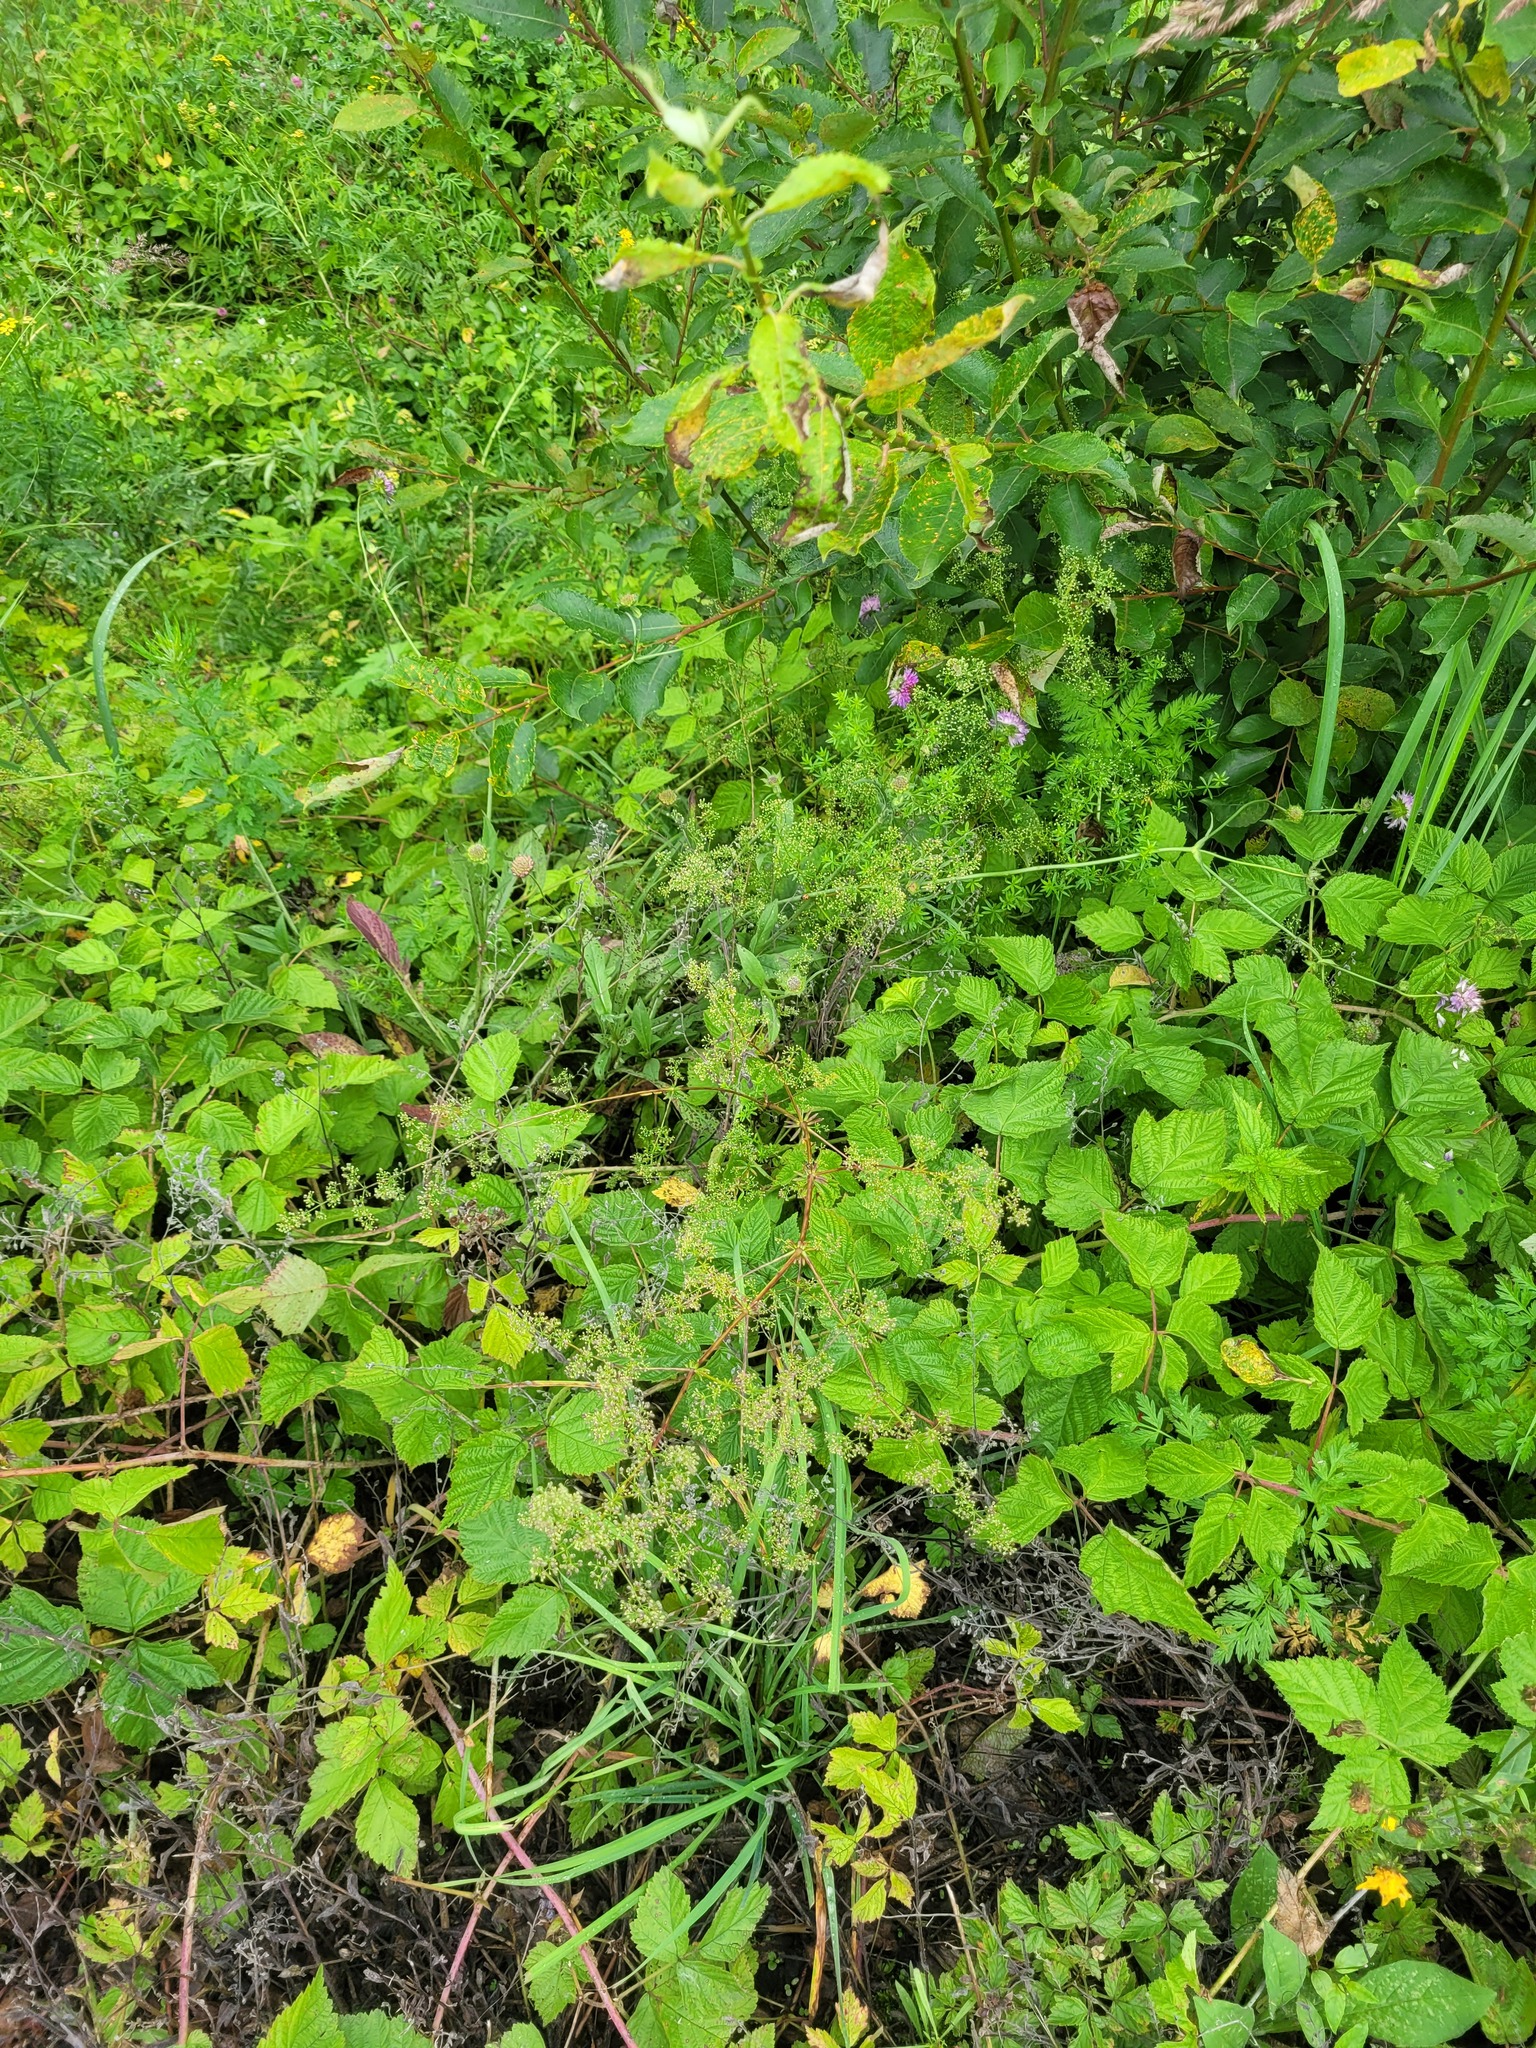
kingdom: Plantae
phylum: Tracheophyta
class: Magnoliopsida
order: Gentianales
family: Rubiaceae
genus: Galium
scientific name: Galium mollugo
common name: Hedge bedstraw
